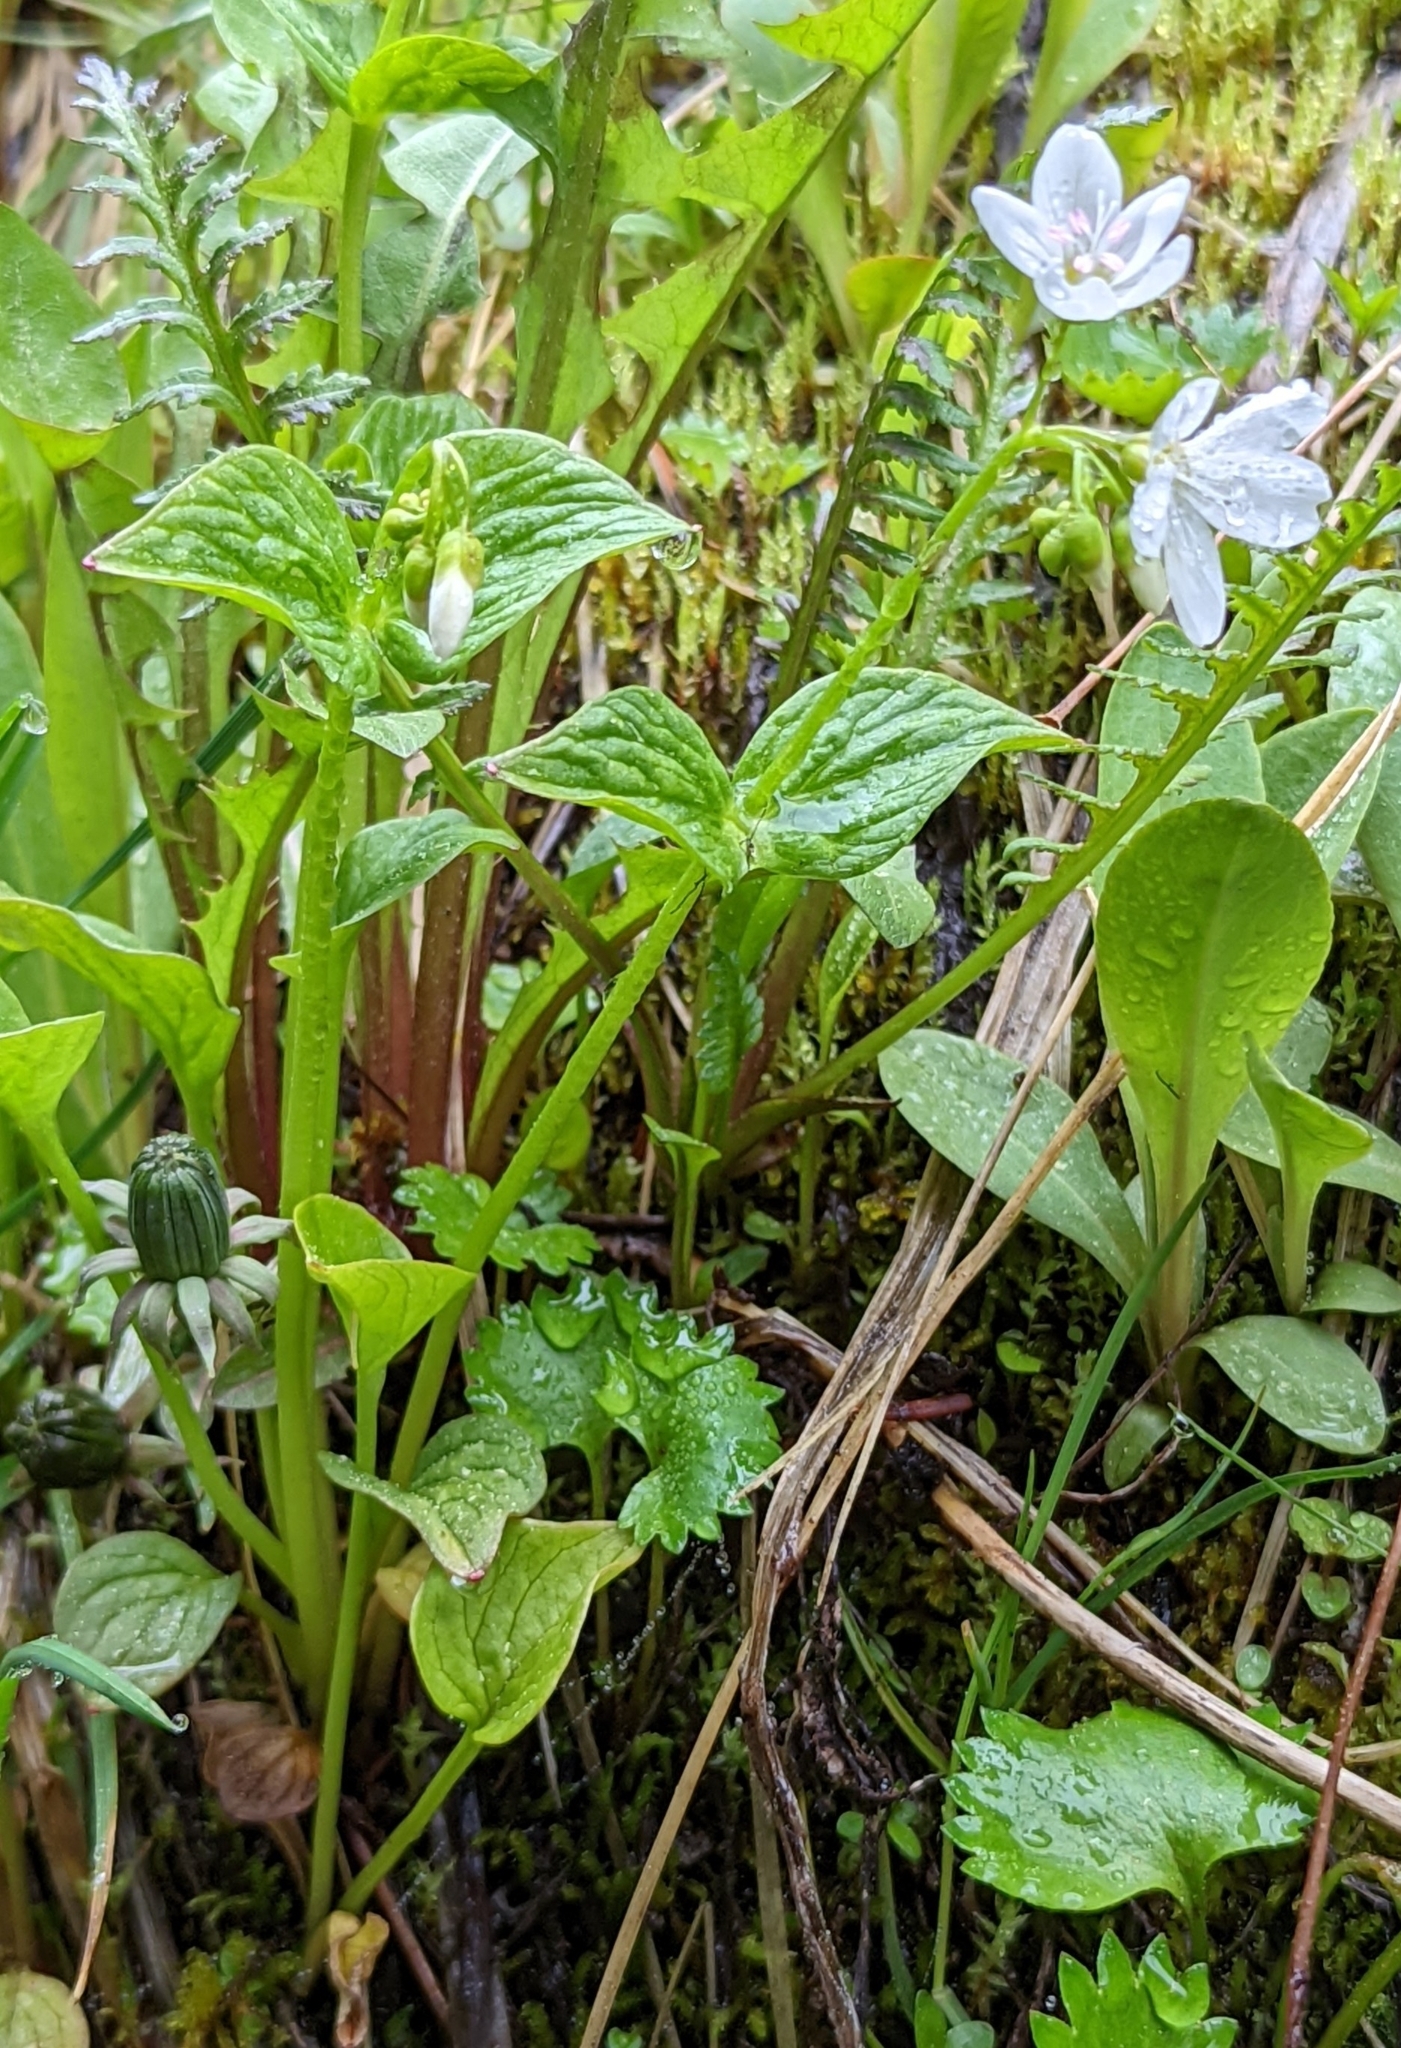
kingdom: Plantae
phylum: Tracheophyta
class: Magnoliopsida
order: Caryophyllales
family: Montiaceae
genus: Claytonia
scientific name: Claytonia cordifolia
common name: Broad-leaved spring beauty
